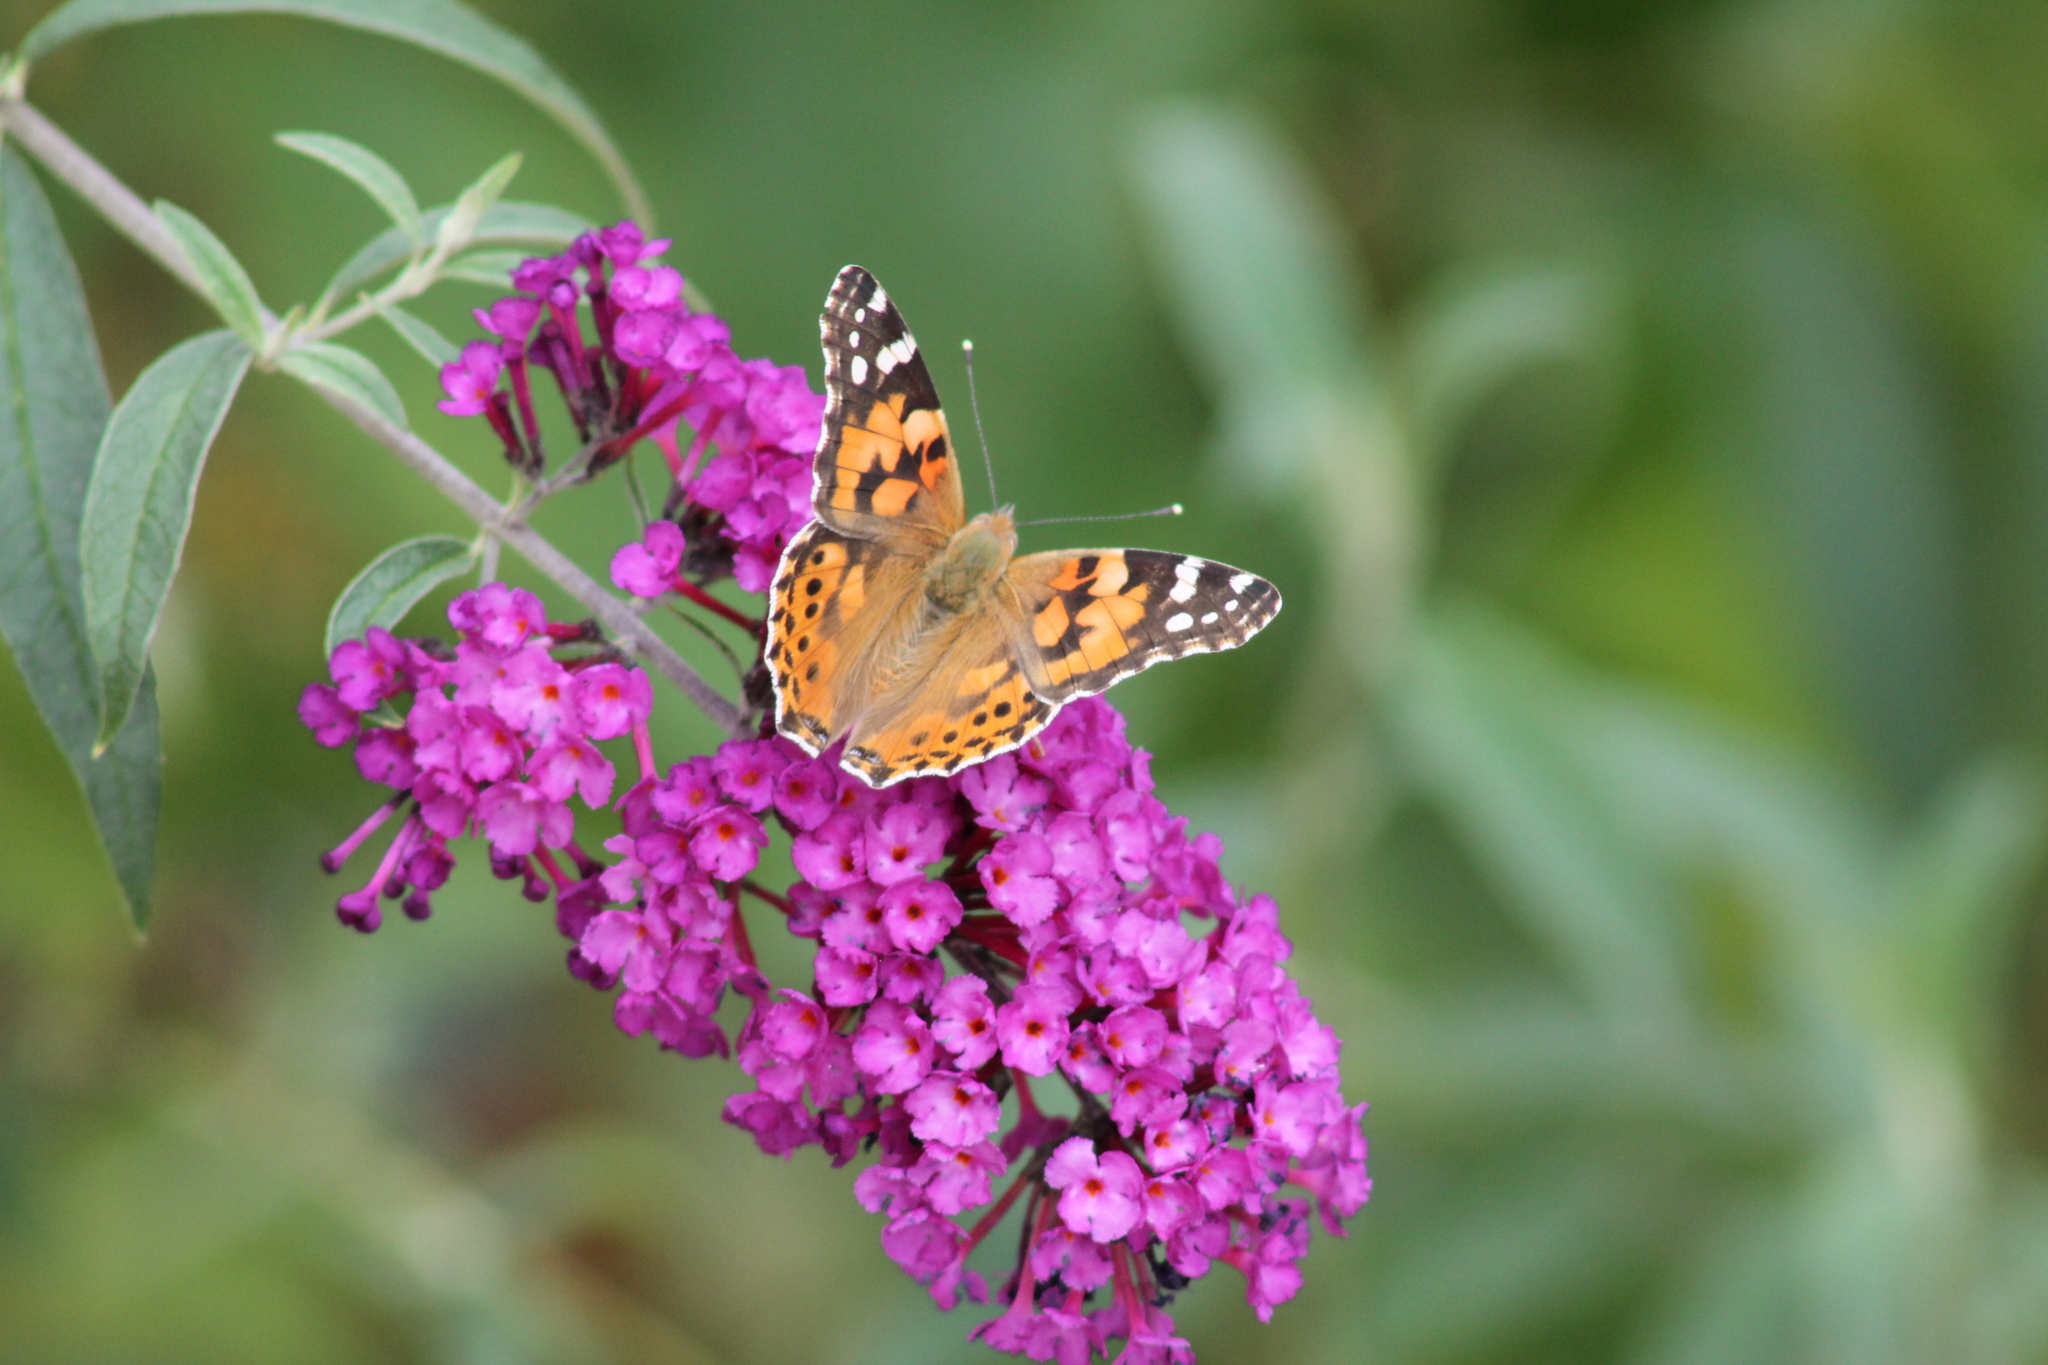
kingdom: Animalia
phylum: Arthropoda
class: Insecta
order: Lepidoptera
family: Nymphalidae
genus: Vanessa
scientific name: Vanessa cardui
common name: Painted lady
